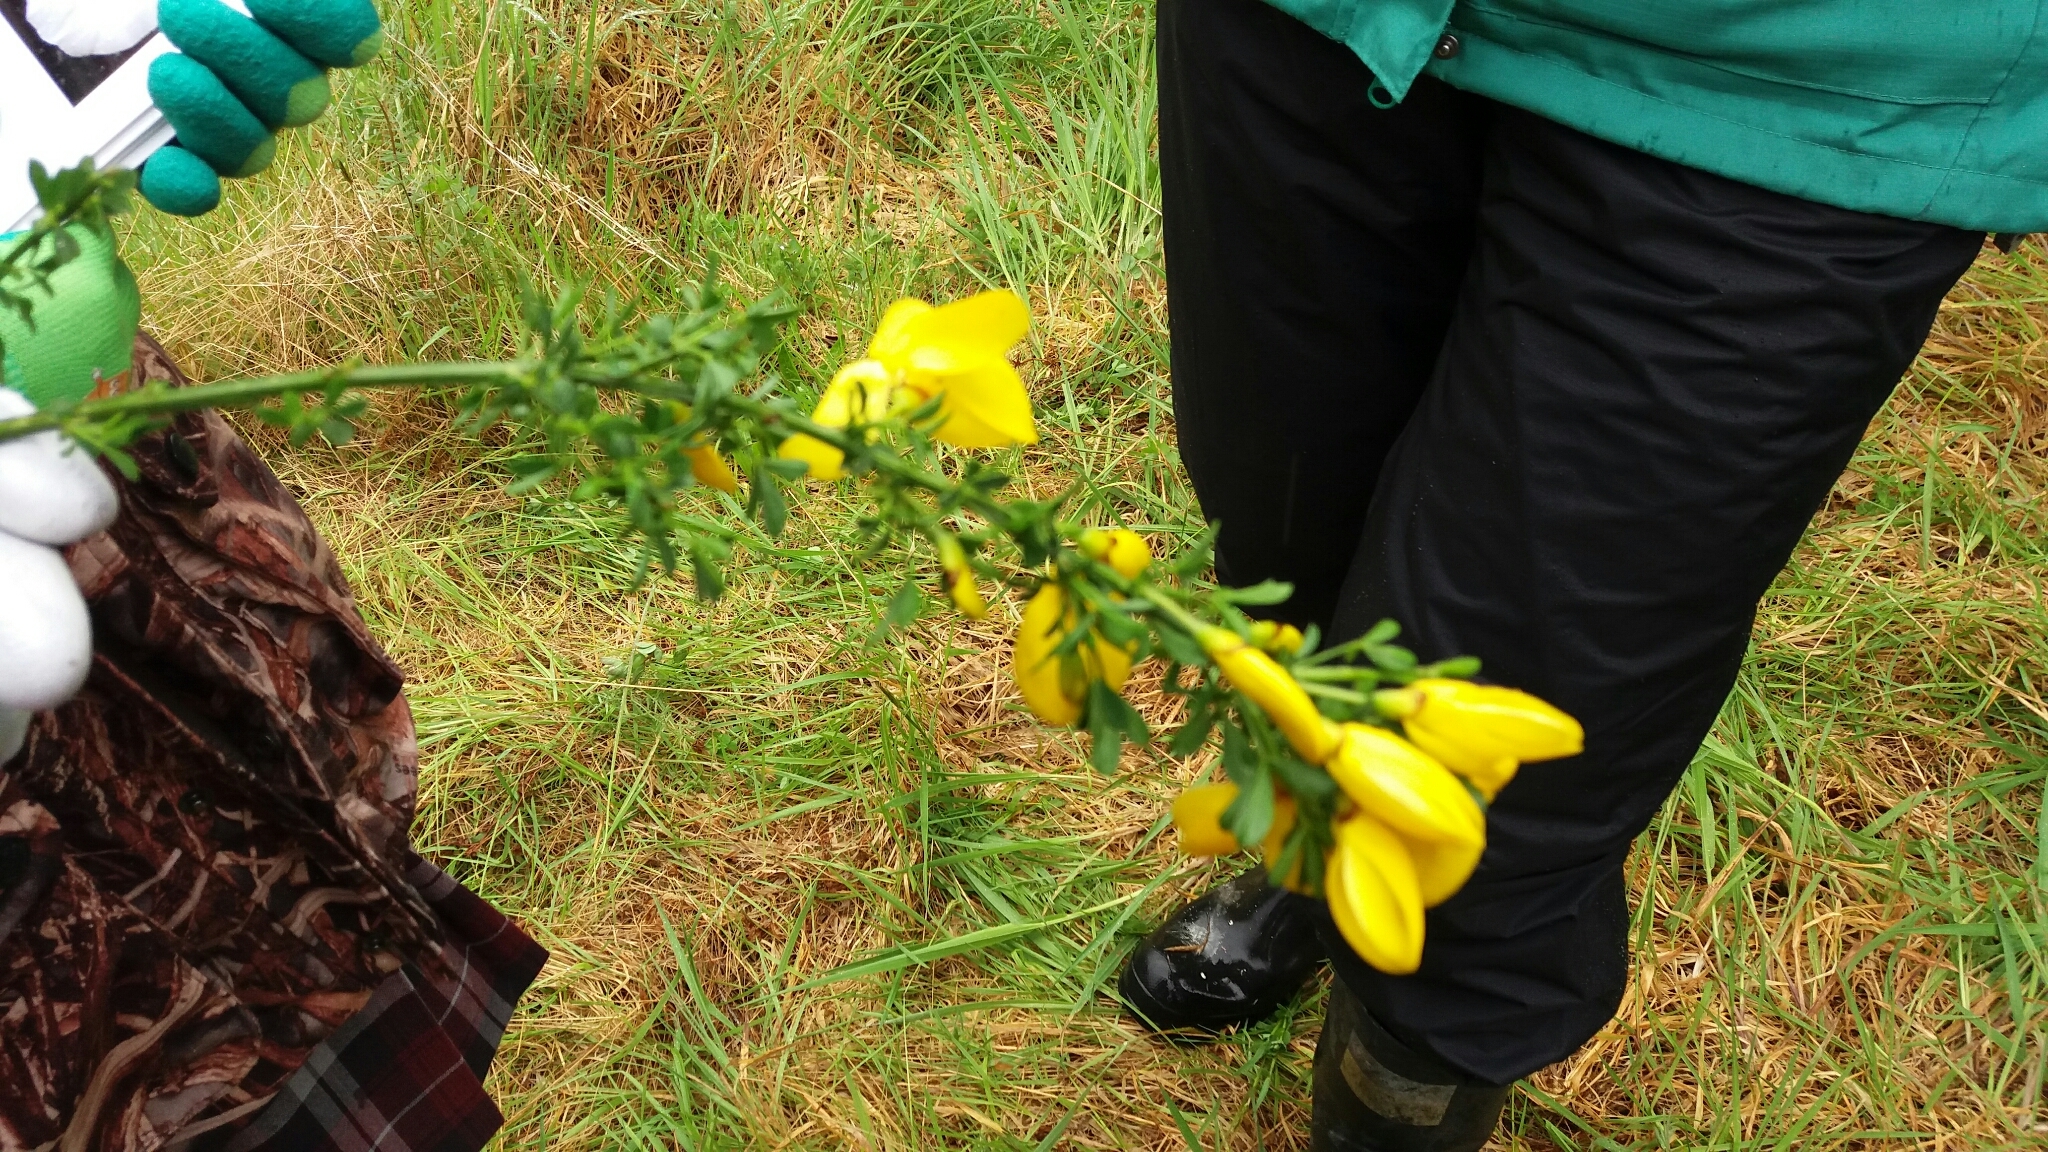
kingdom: Plantae
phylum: Tracheophyta
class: Magnoliopsida
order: Fabales
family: Fabaceae
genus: Cytisus
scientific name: Cytisus scoparius
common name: Scotch broom
